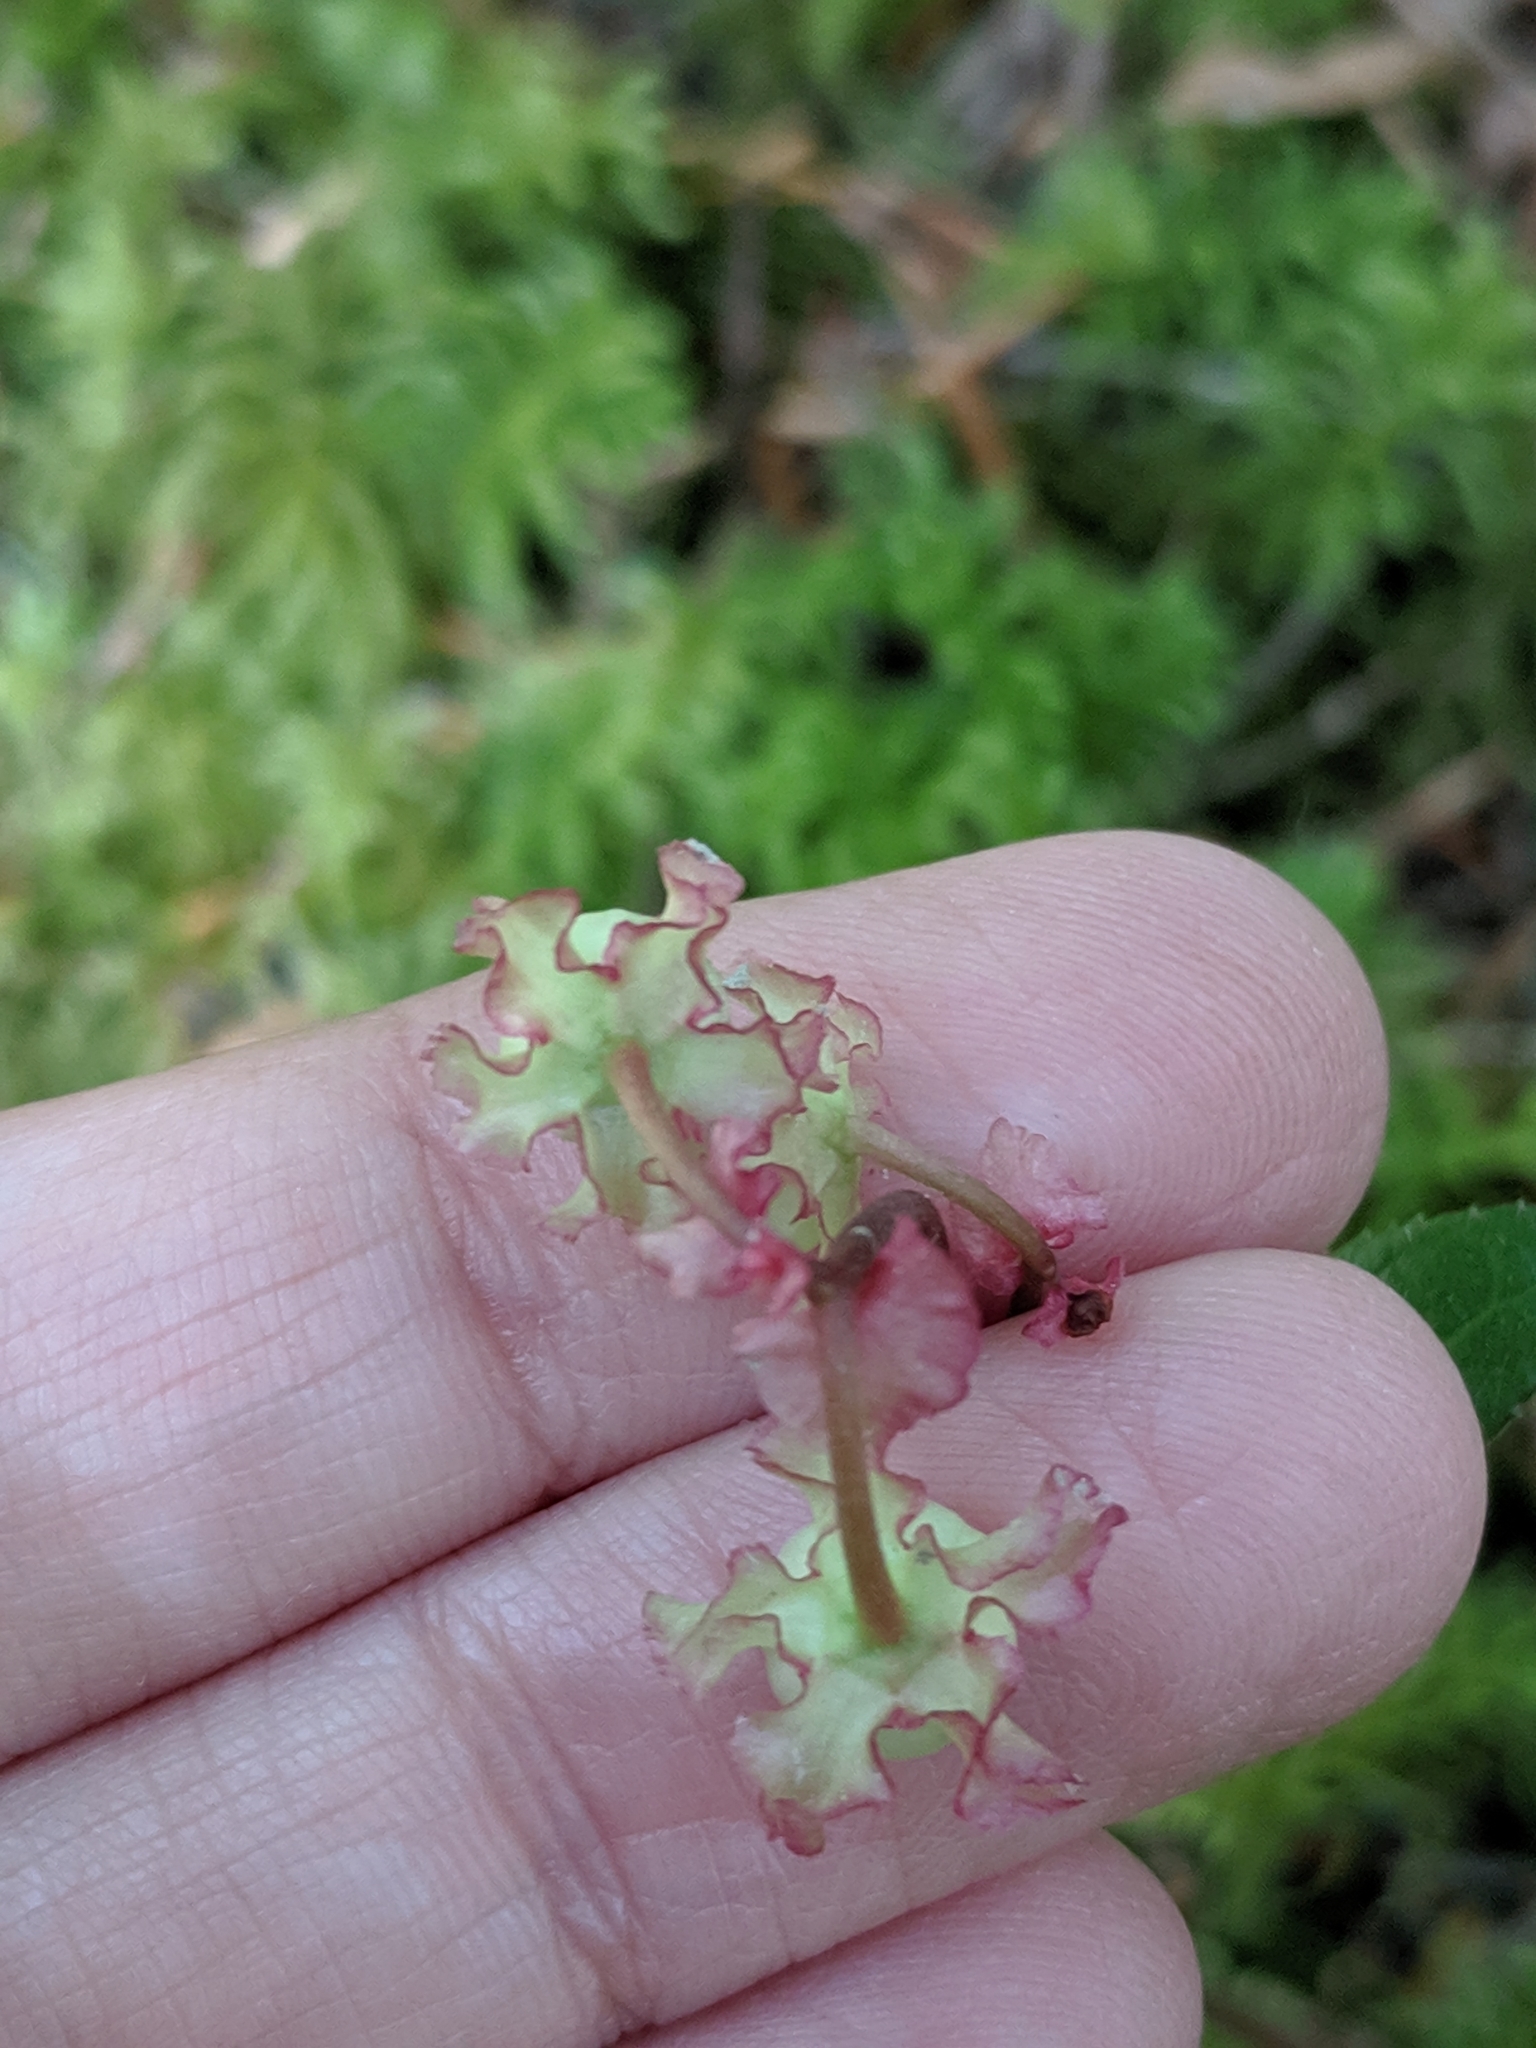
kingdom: Plantae
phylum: Tracheophyta
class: Magnoliopsida
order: Ericales
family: Ericaceae
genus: Chimaphila
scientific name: Chimaphila menziesii
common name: Menzies' pipsissewa
